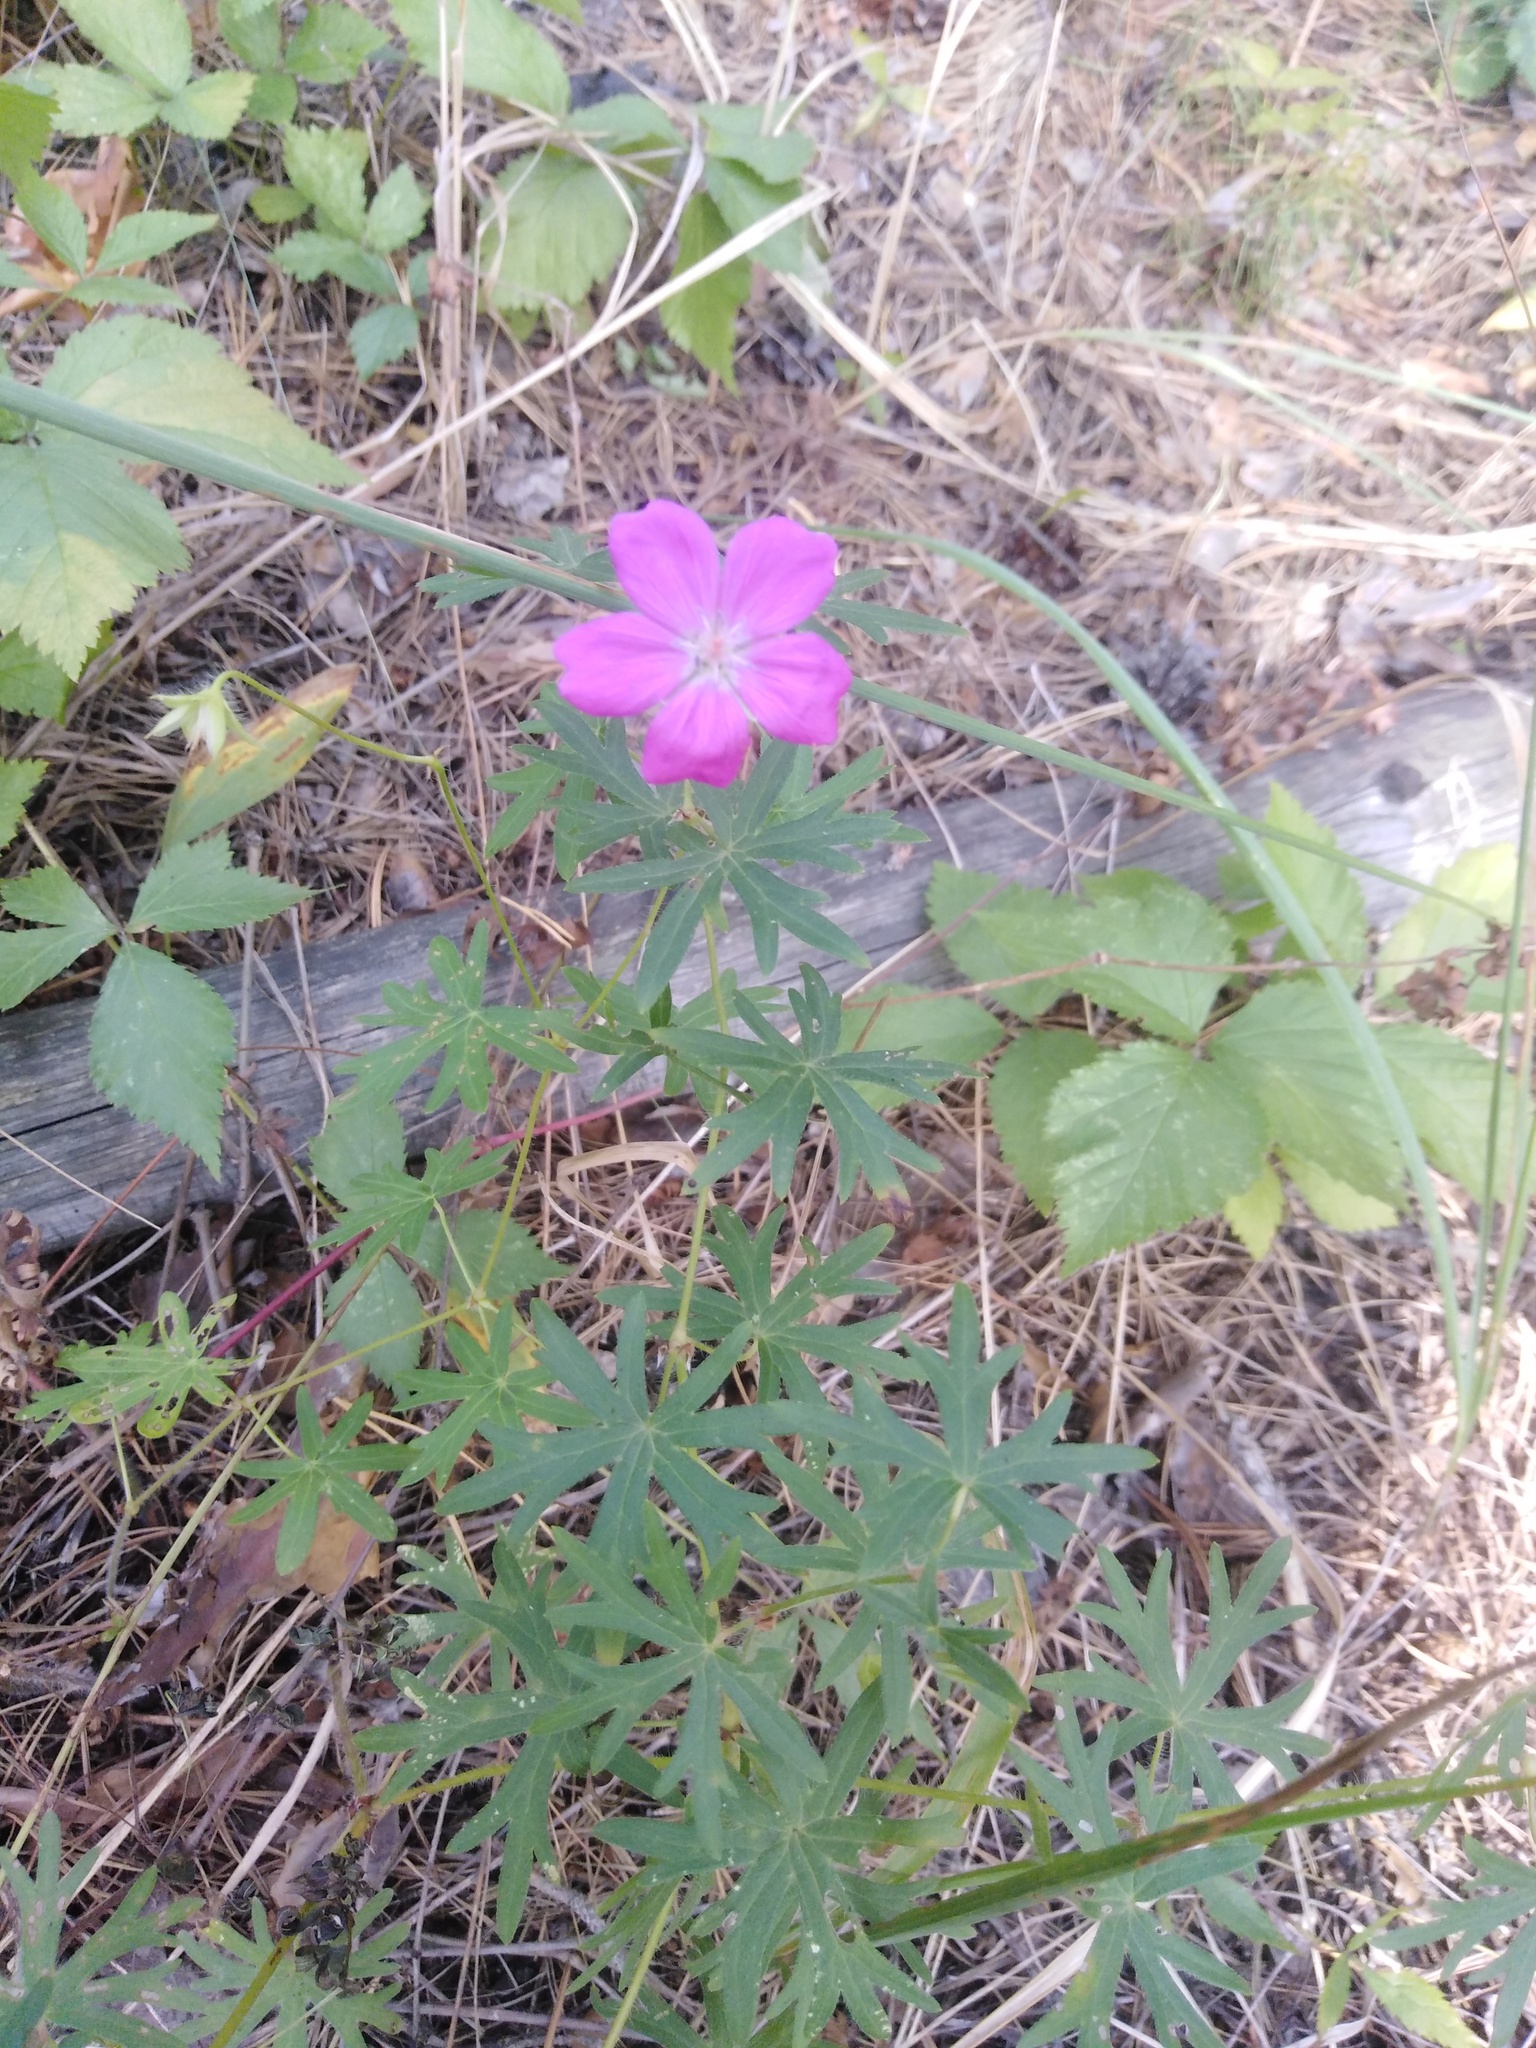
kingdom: Plantae
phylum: Tracheophyta
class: Magnoliopsida
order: Geraniales
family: Geraniaceae
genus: Geranium
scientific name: Geranium sanguineum
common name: Bloody crane's-bill
